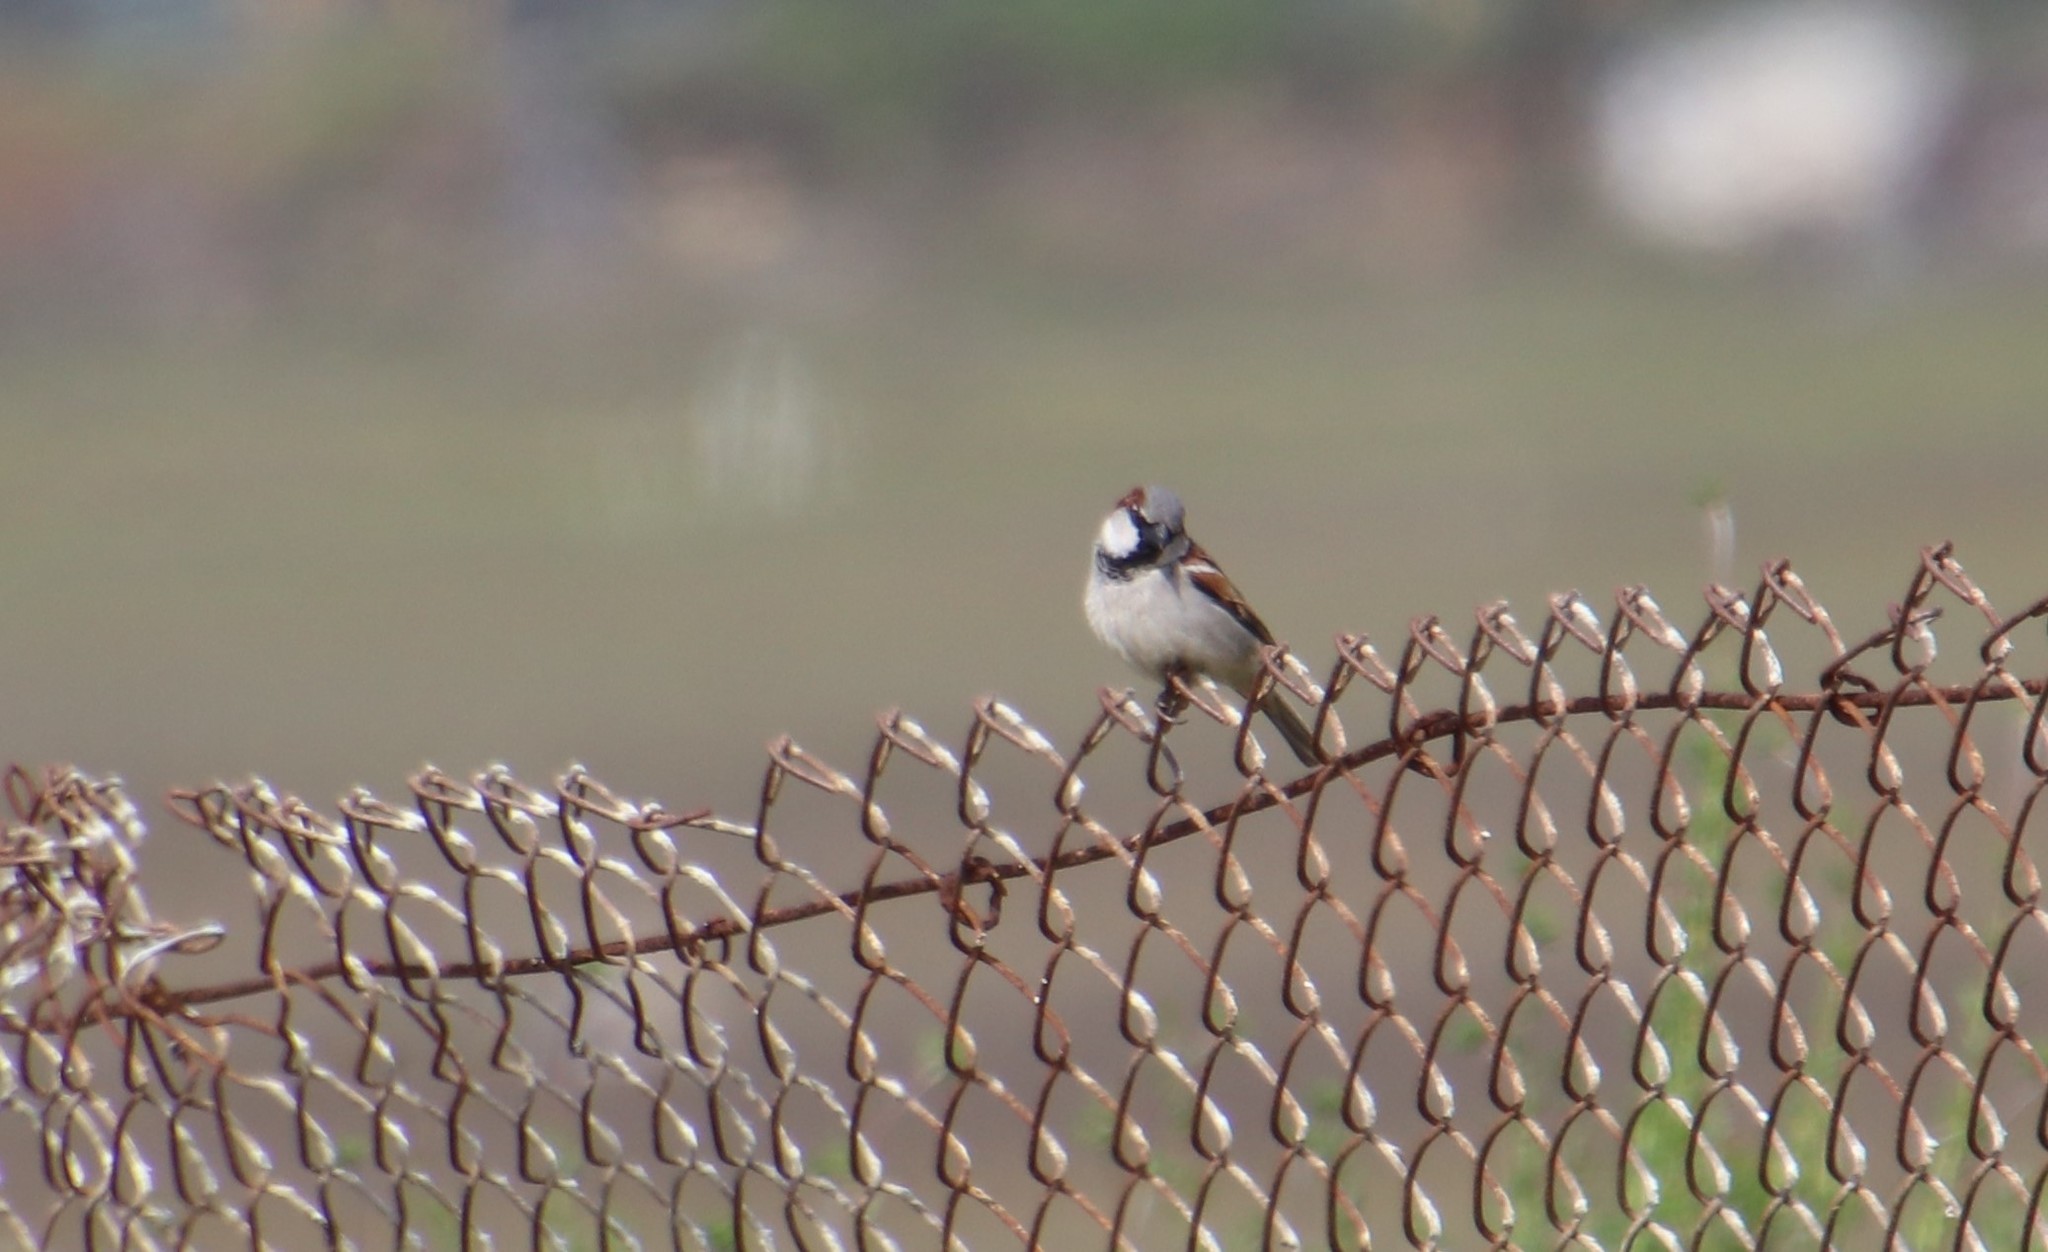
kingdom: Animalia
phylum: Chordata
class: Aves
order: Passeriformes
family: Passeridae
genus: Passer
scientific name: Passer domesticus
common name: House sparrow
